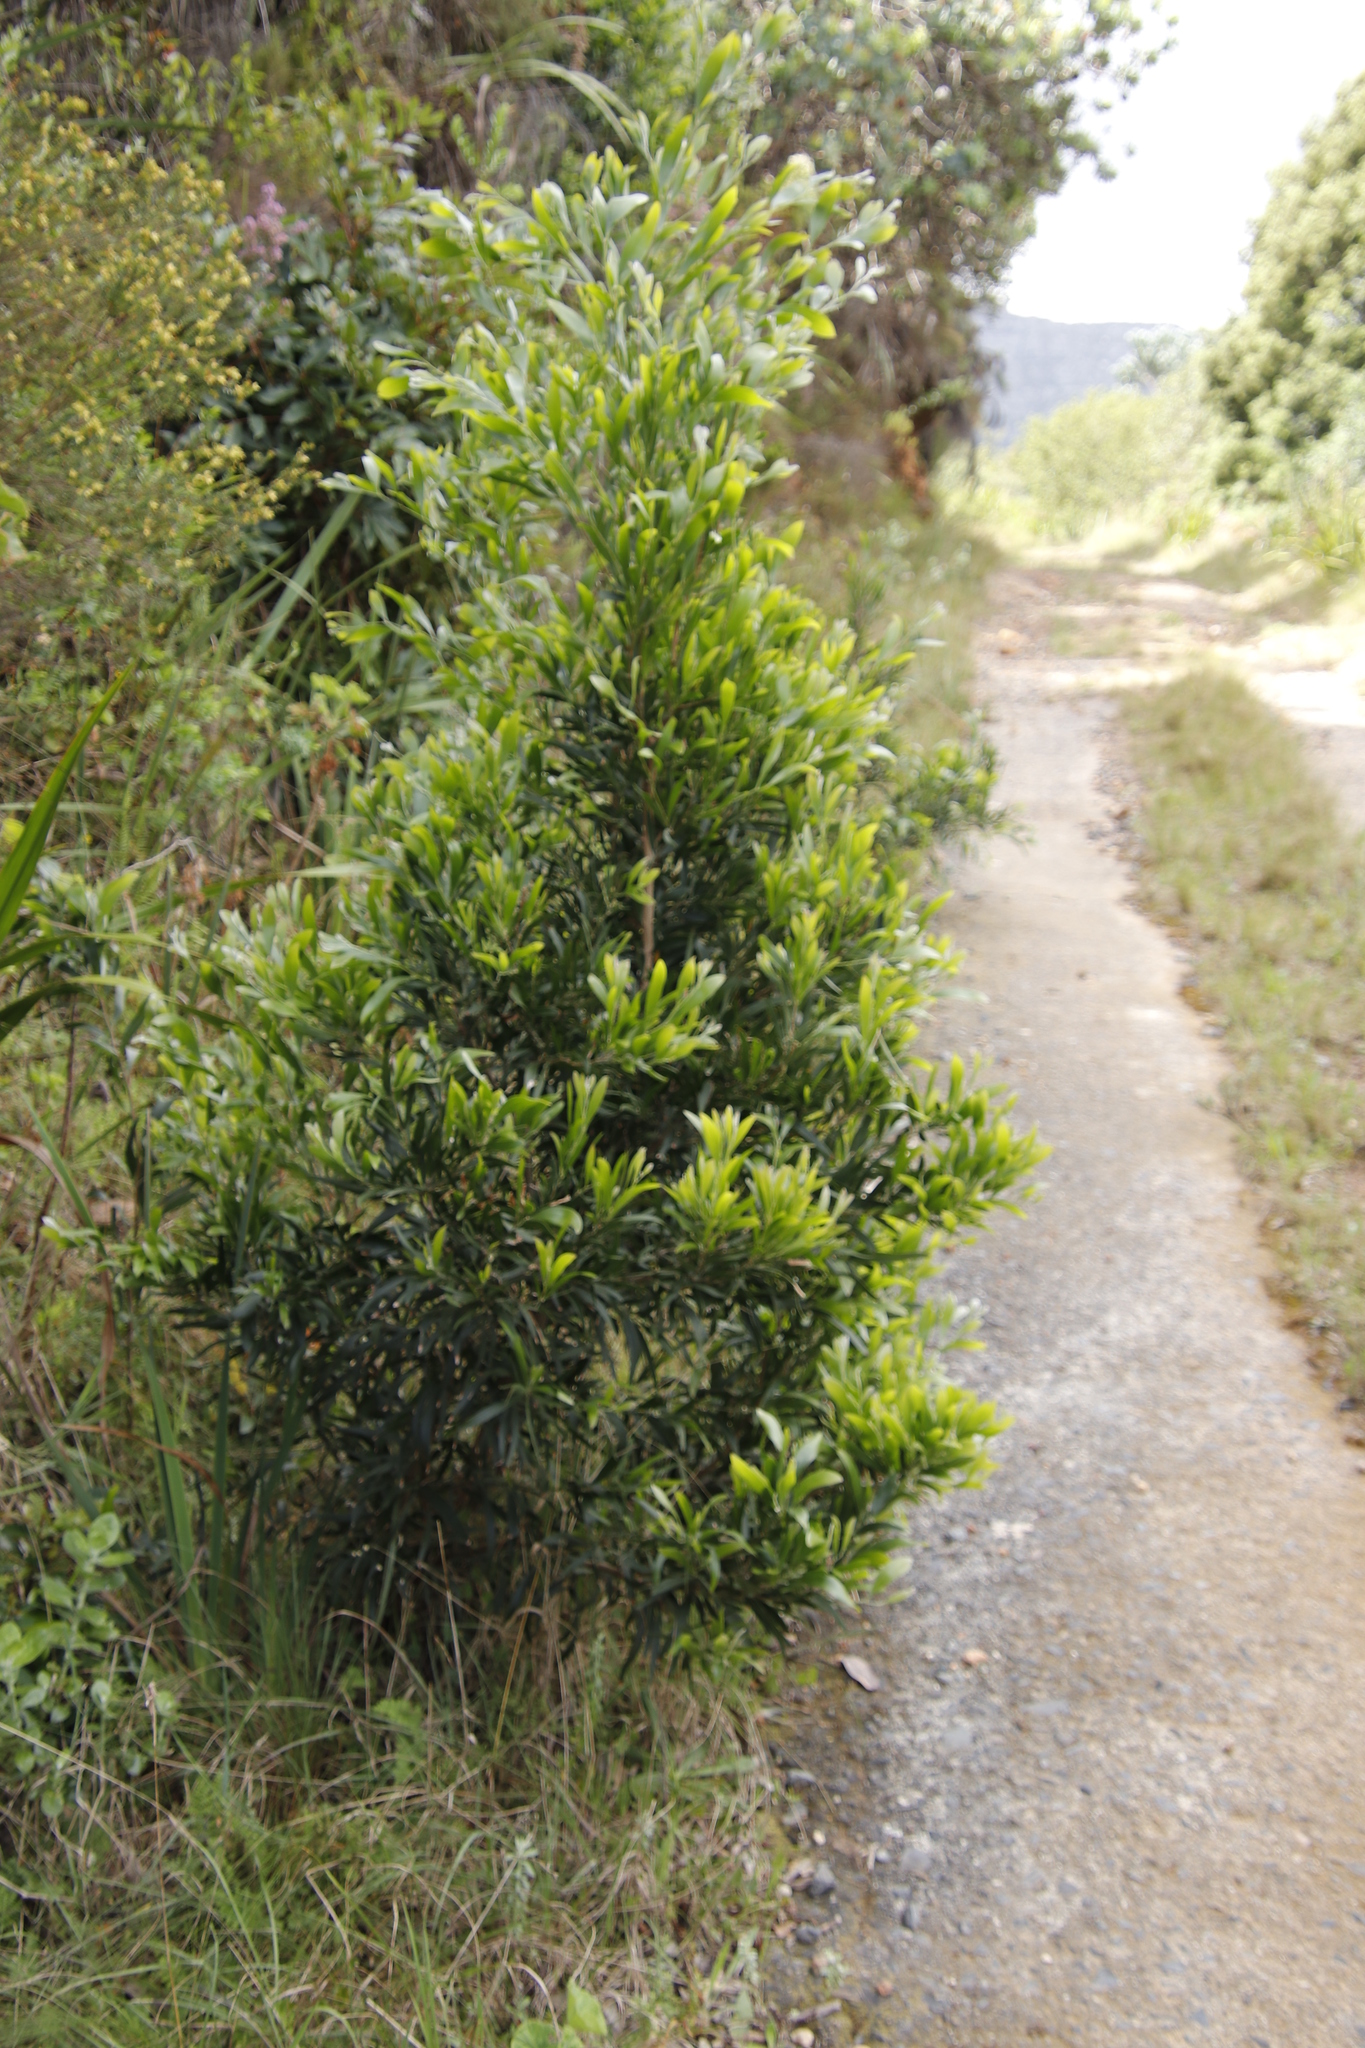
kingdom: Plantae
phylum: Tracheophyta
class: Magnoliopsida
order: Fabales
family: Fabaceae
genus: Acacia
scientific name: Acacia melanoxylon
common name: Blackwood
